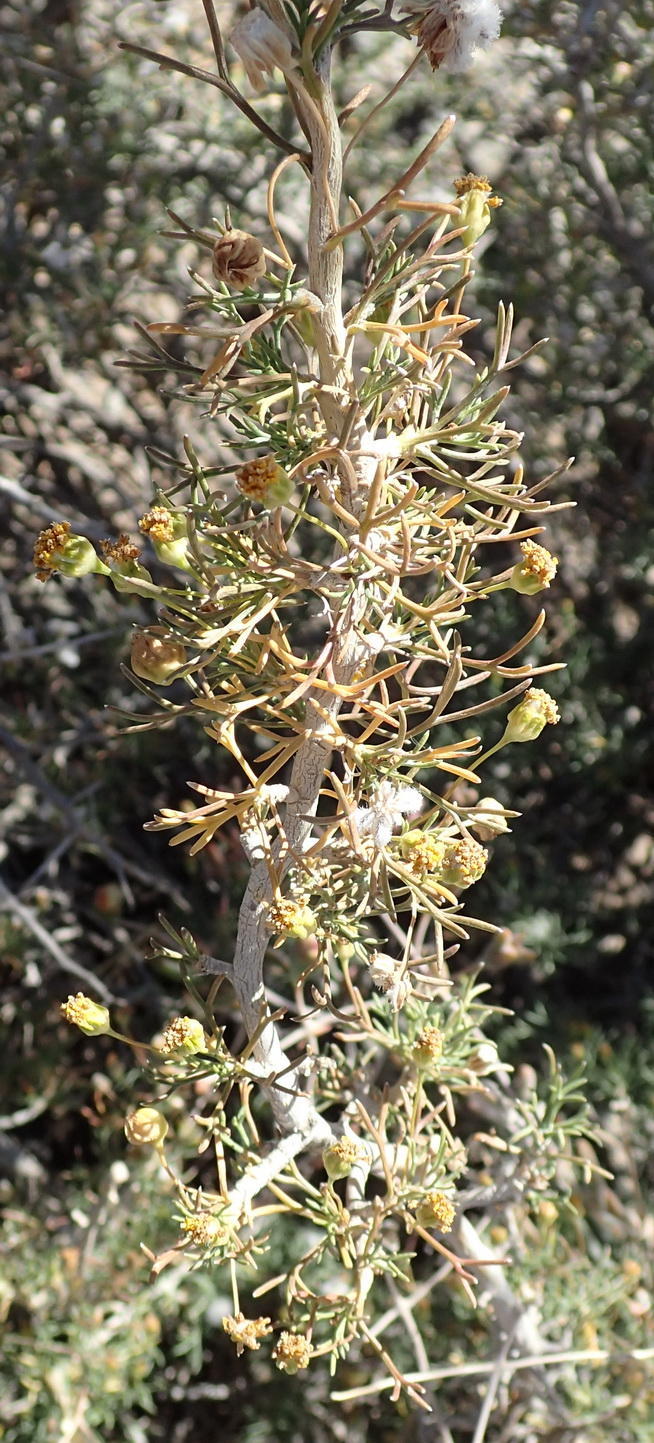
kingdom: Plantae
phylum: Tracheophyta
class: Magnoliopsida
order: Asterales
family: Asteraceae
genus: Euryops
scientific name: Euryops multifidus
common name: Hawk's eye
